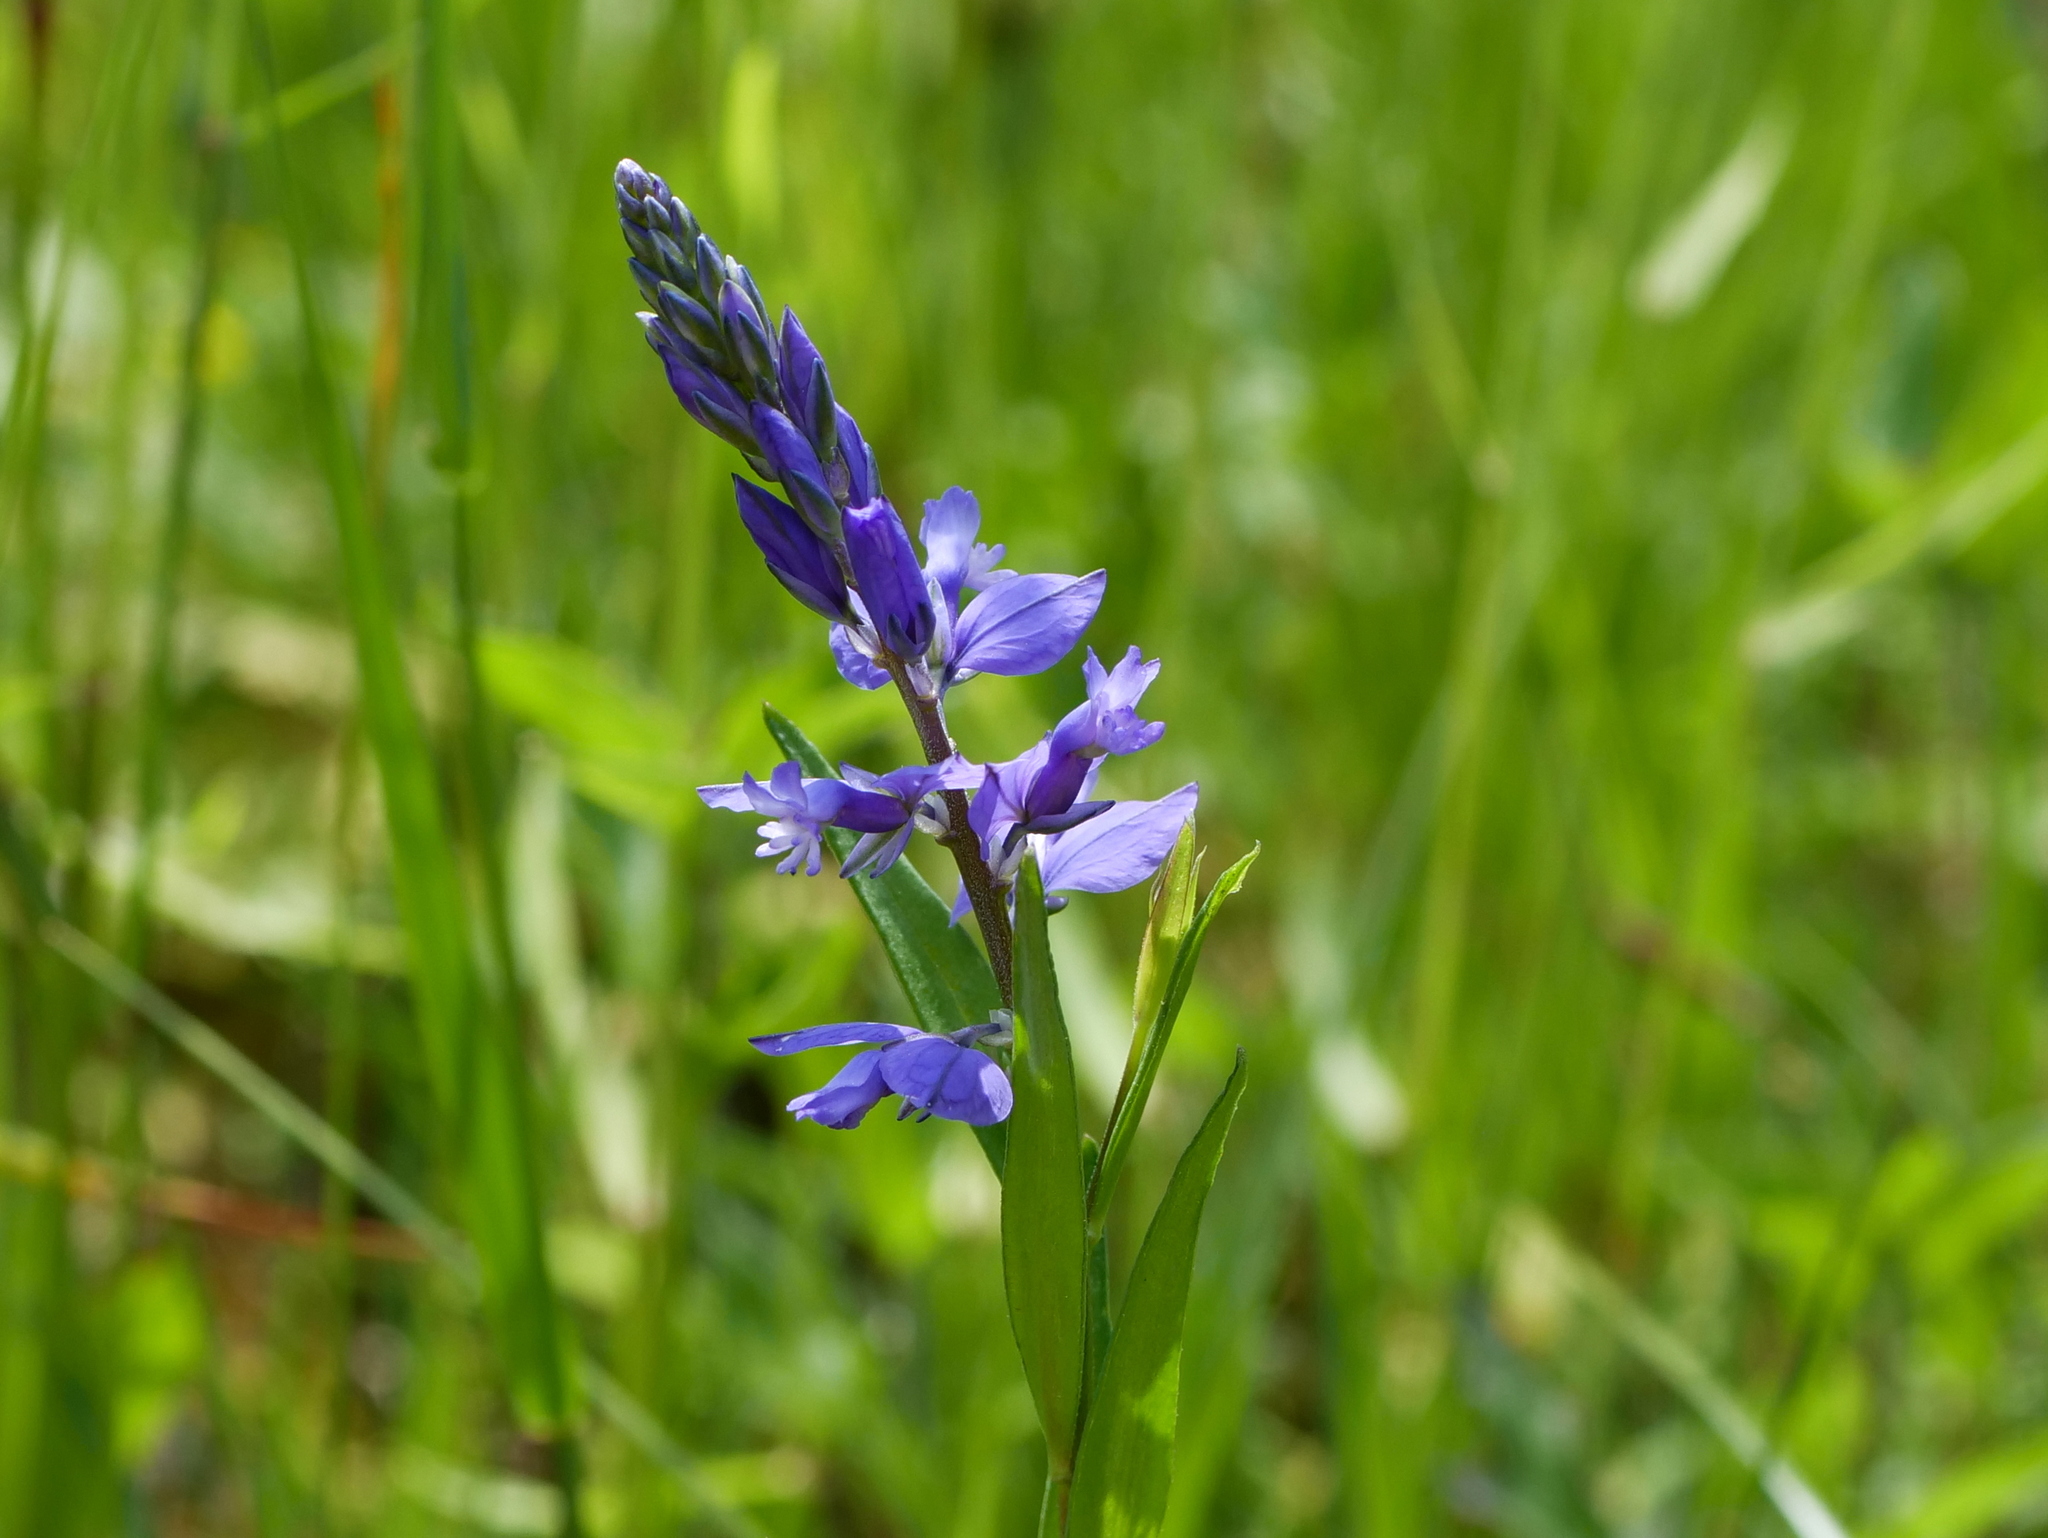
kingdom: Plantae
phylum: Tracheophyta
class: Magnoliopsida
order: Fabales
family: Polygalaceae
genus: Polygala
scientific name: Polygala vulgaris
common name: Common milkwort
